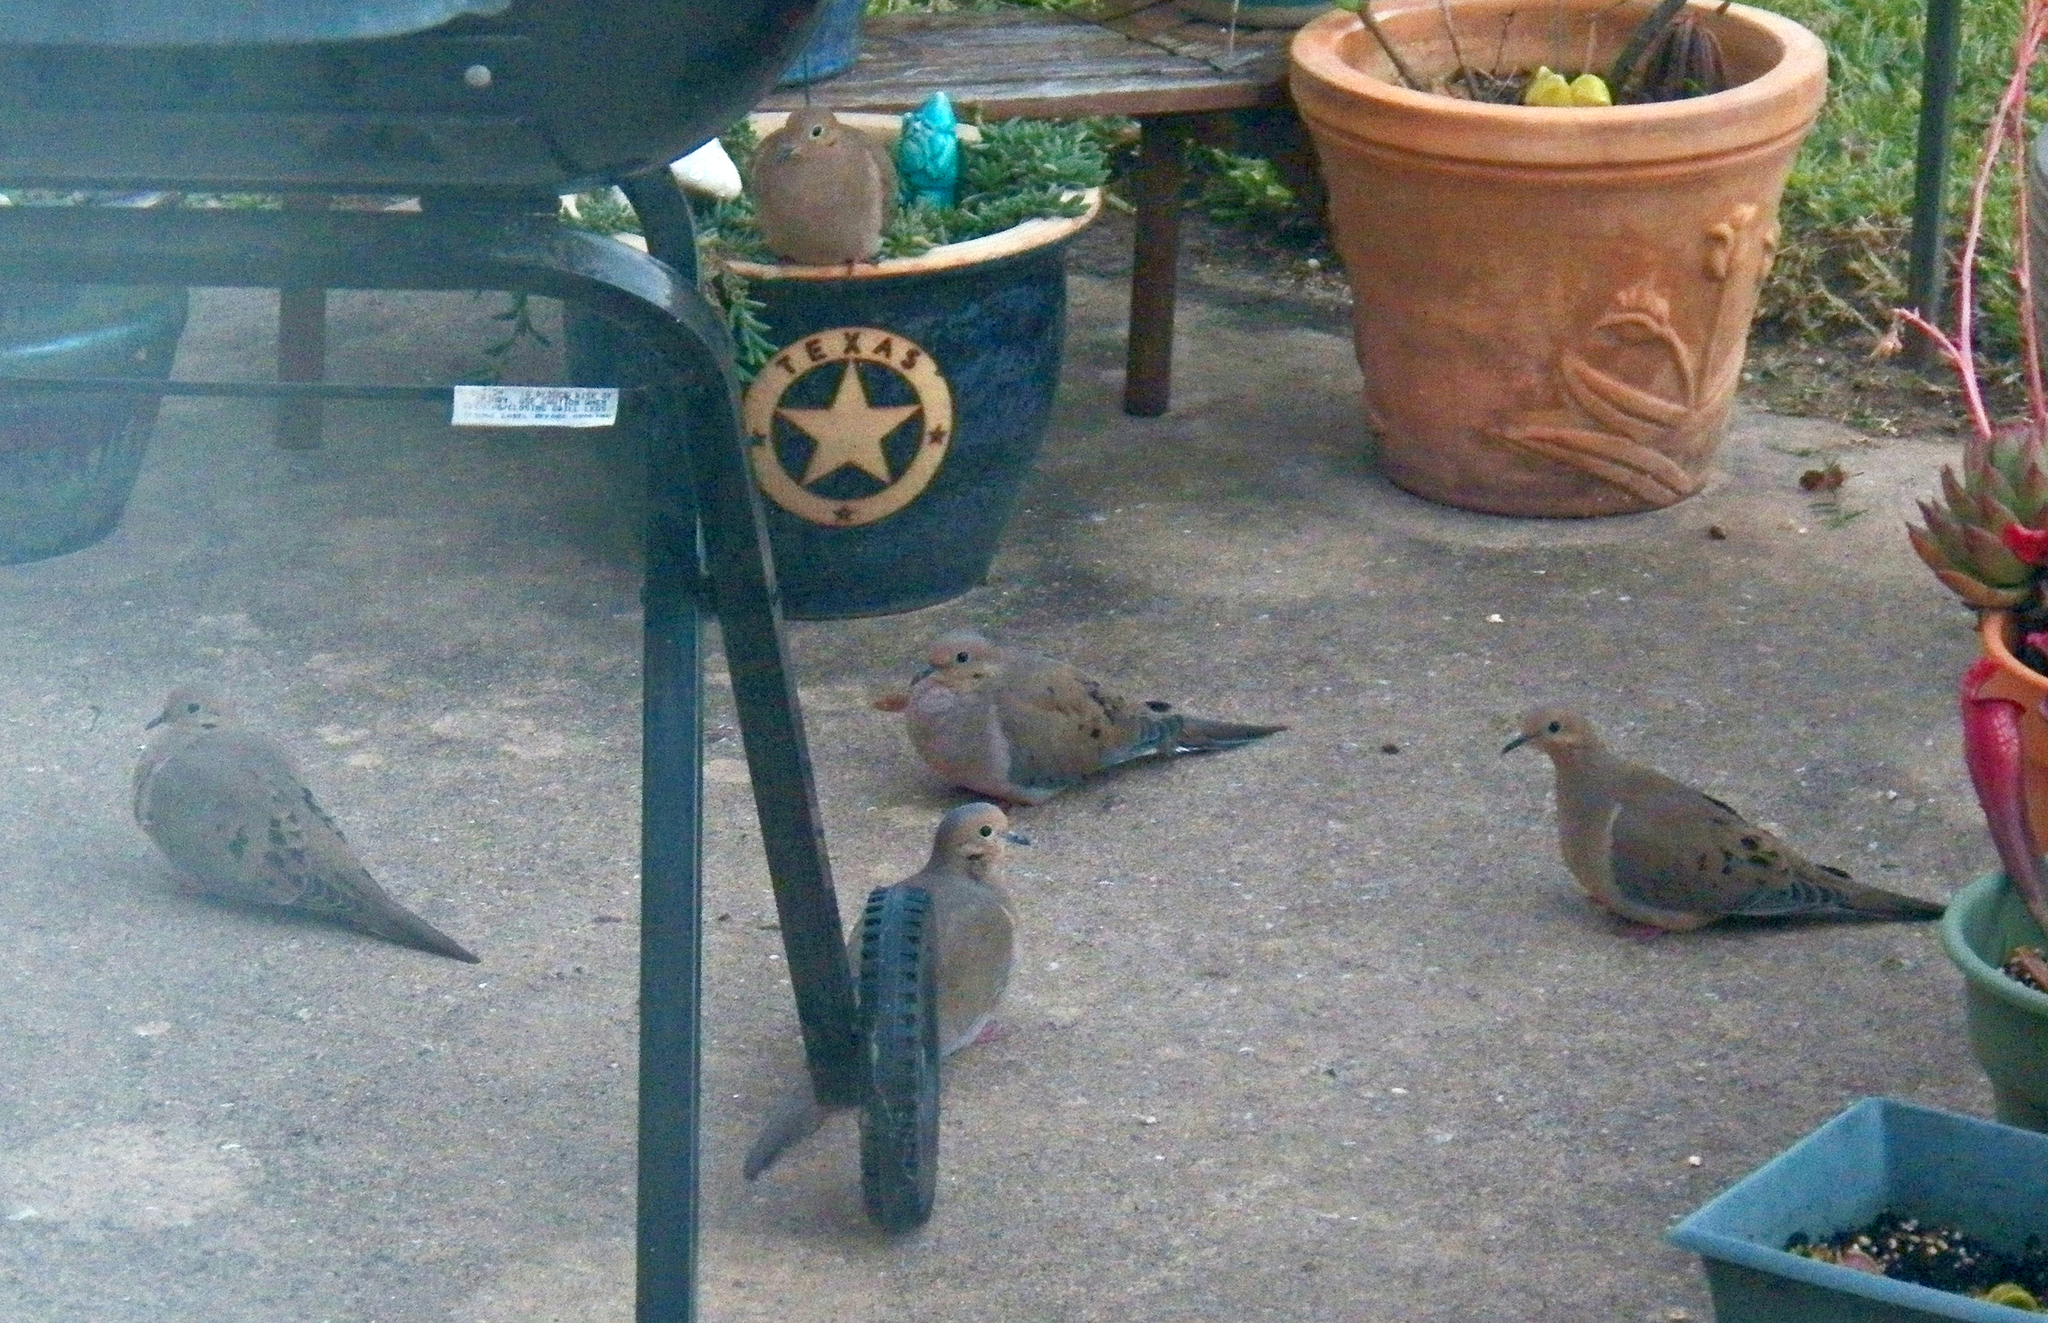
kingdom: Animalia
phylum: Chordata
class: Aves
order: Columbiformes
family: Columbidae
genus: Zenaida
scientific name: Zenaida macroura
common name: Mourning dove
